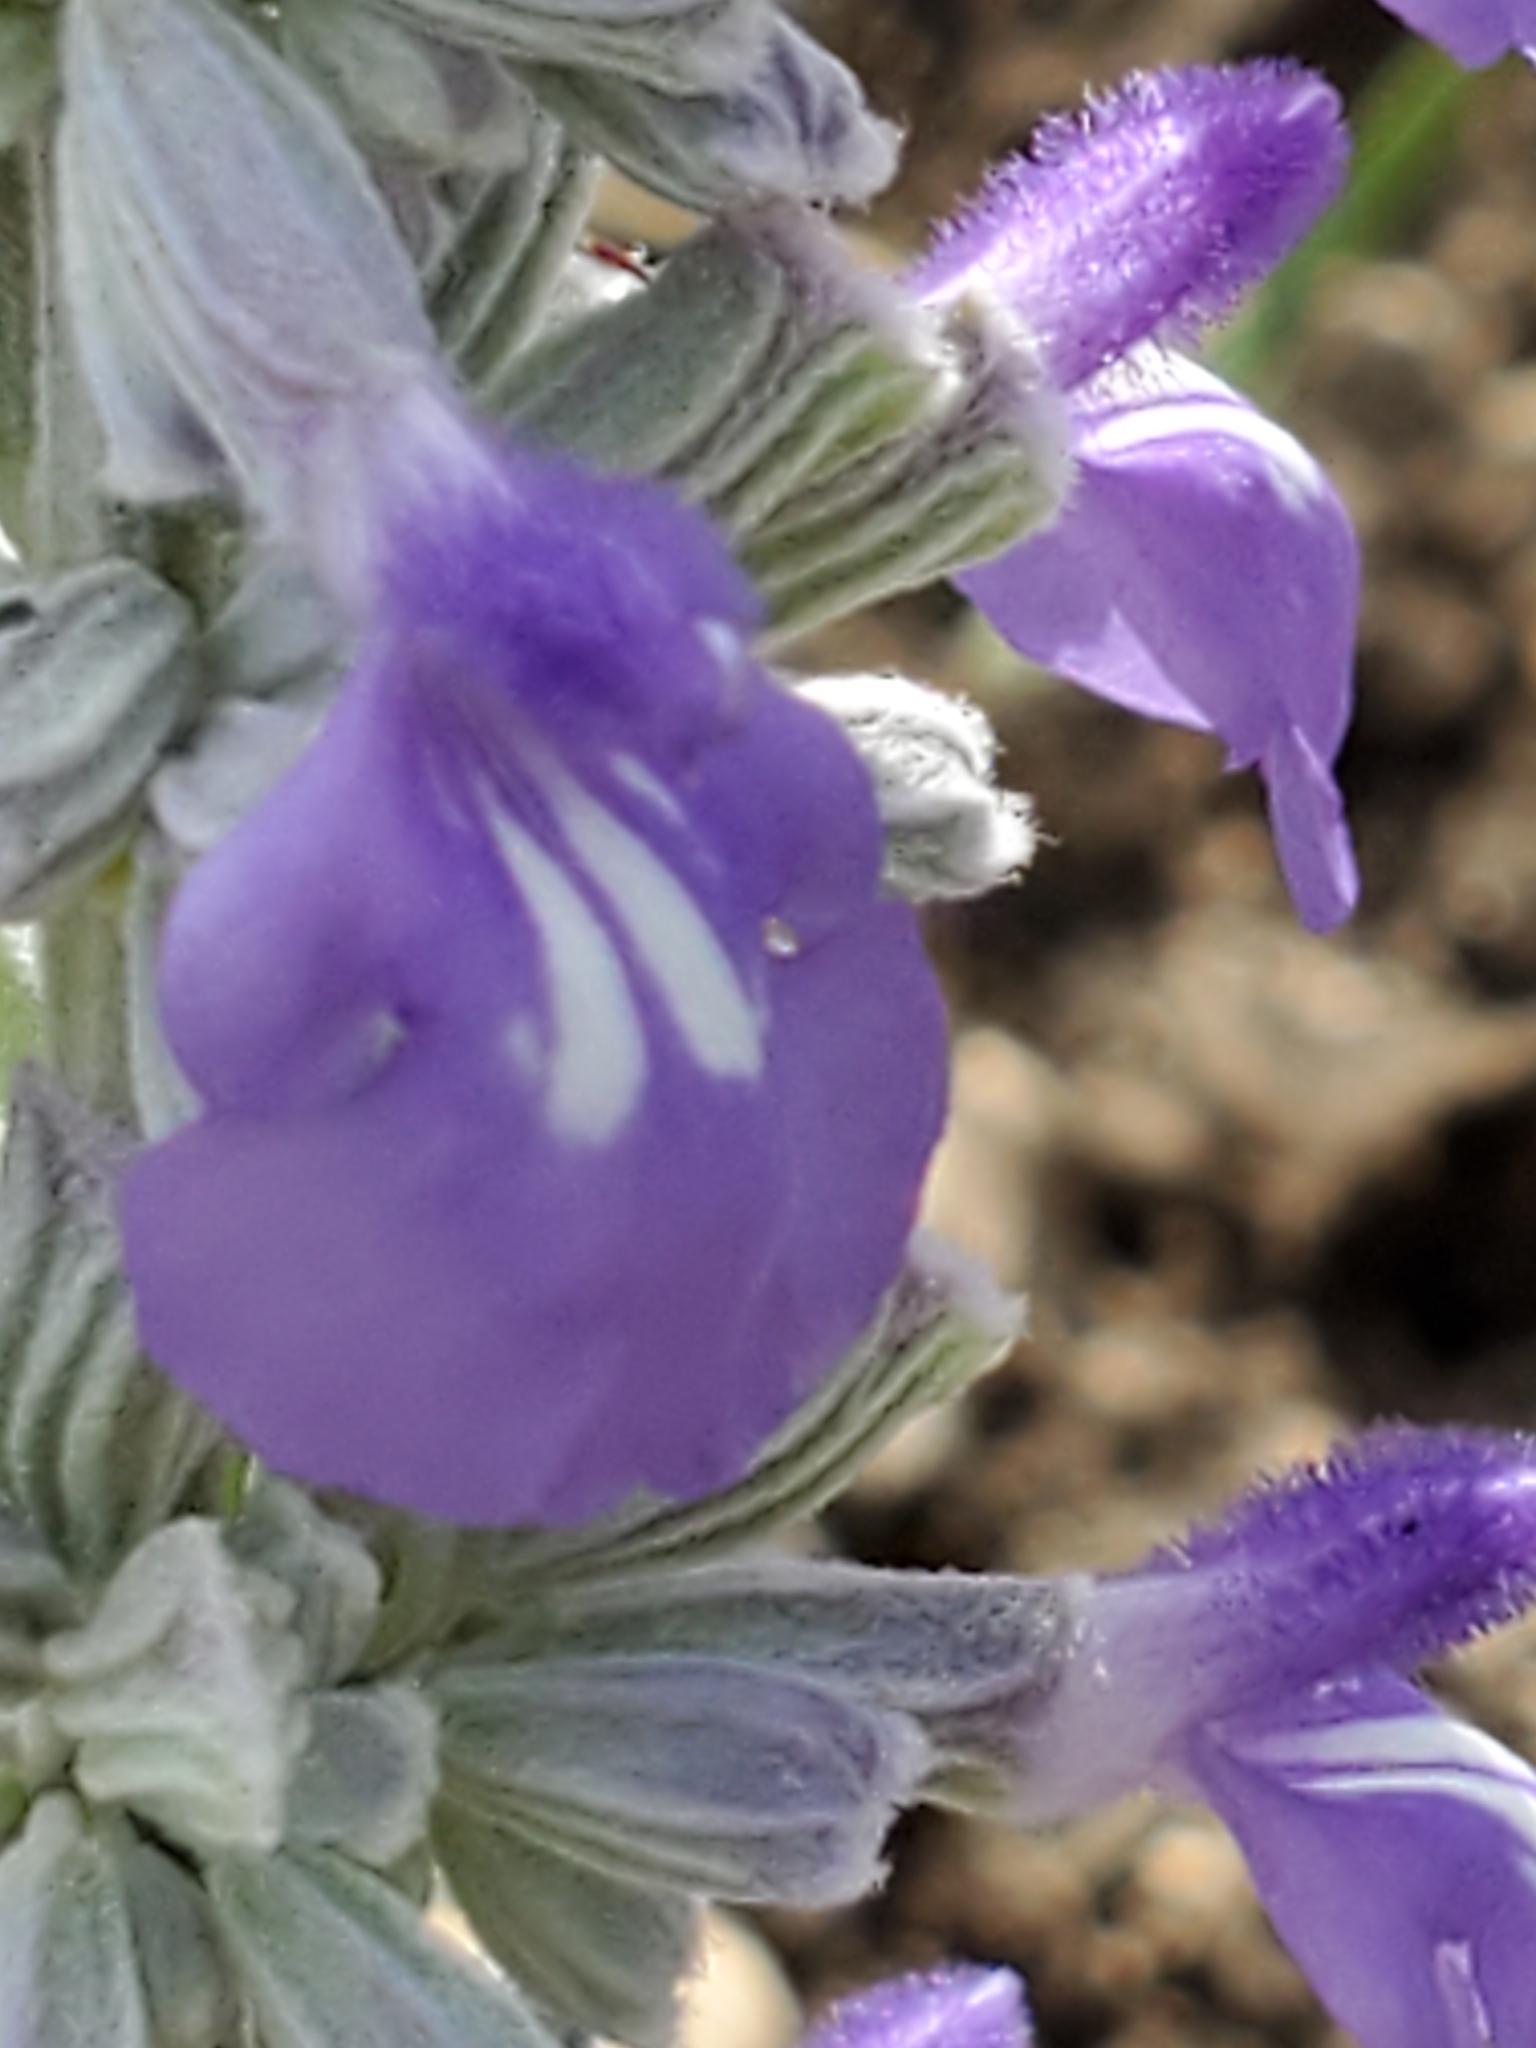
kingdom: Plantae
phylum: Tracheophyta
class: Magnoliopsida
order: Lamiales
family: Lamiaceae
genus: Salvia
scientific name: Salvia farinacea
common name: Mealy sage
